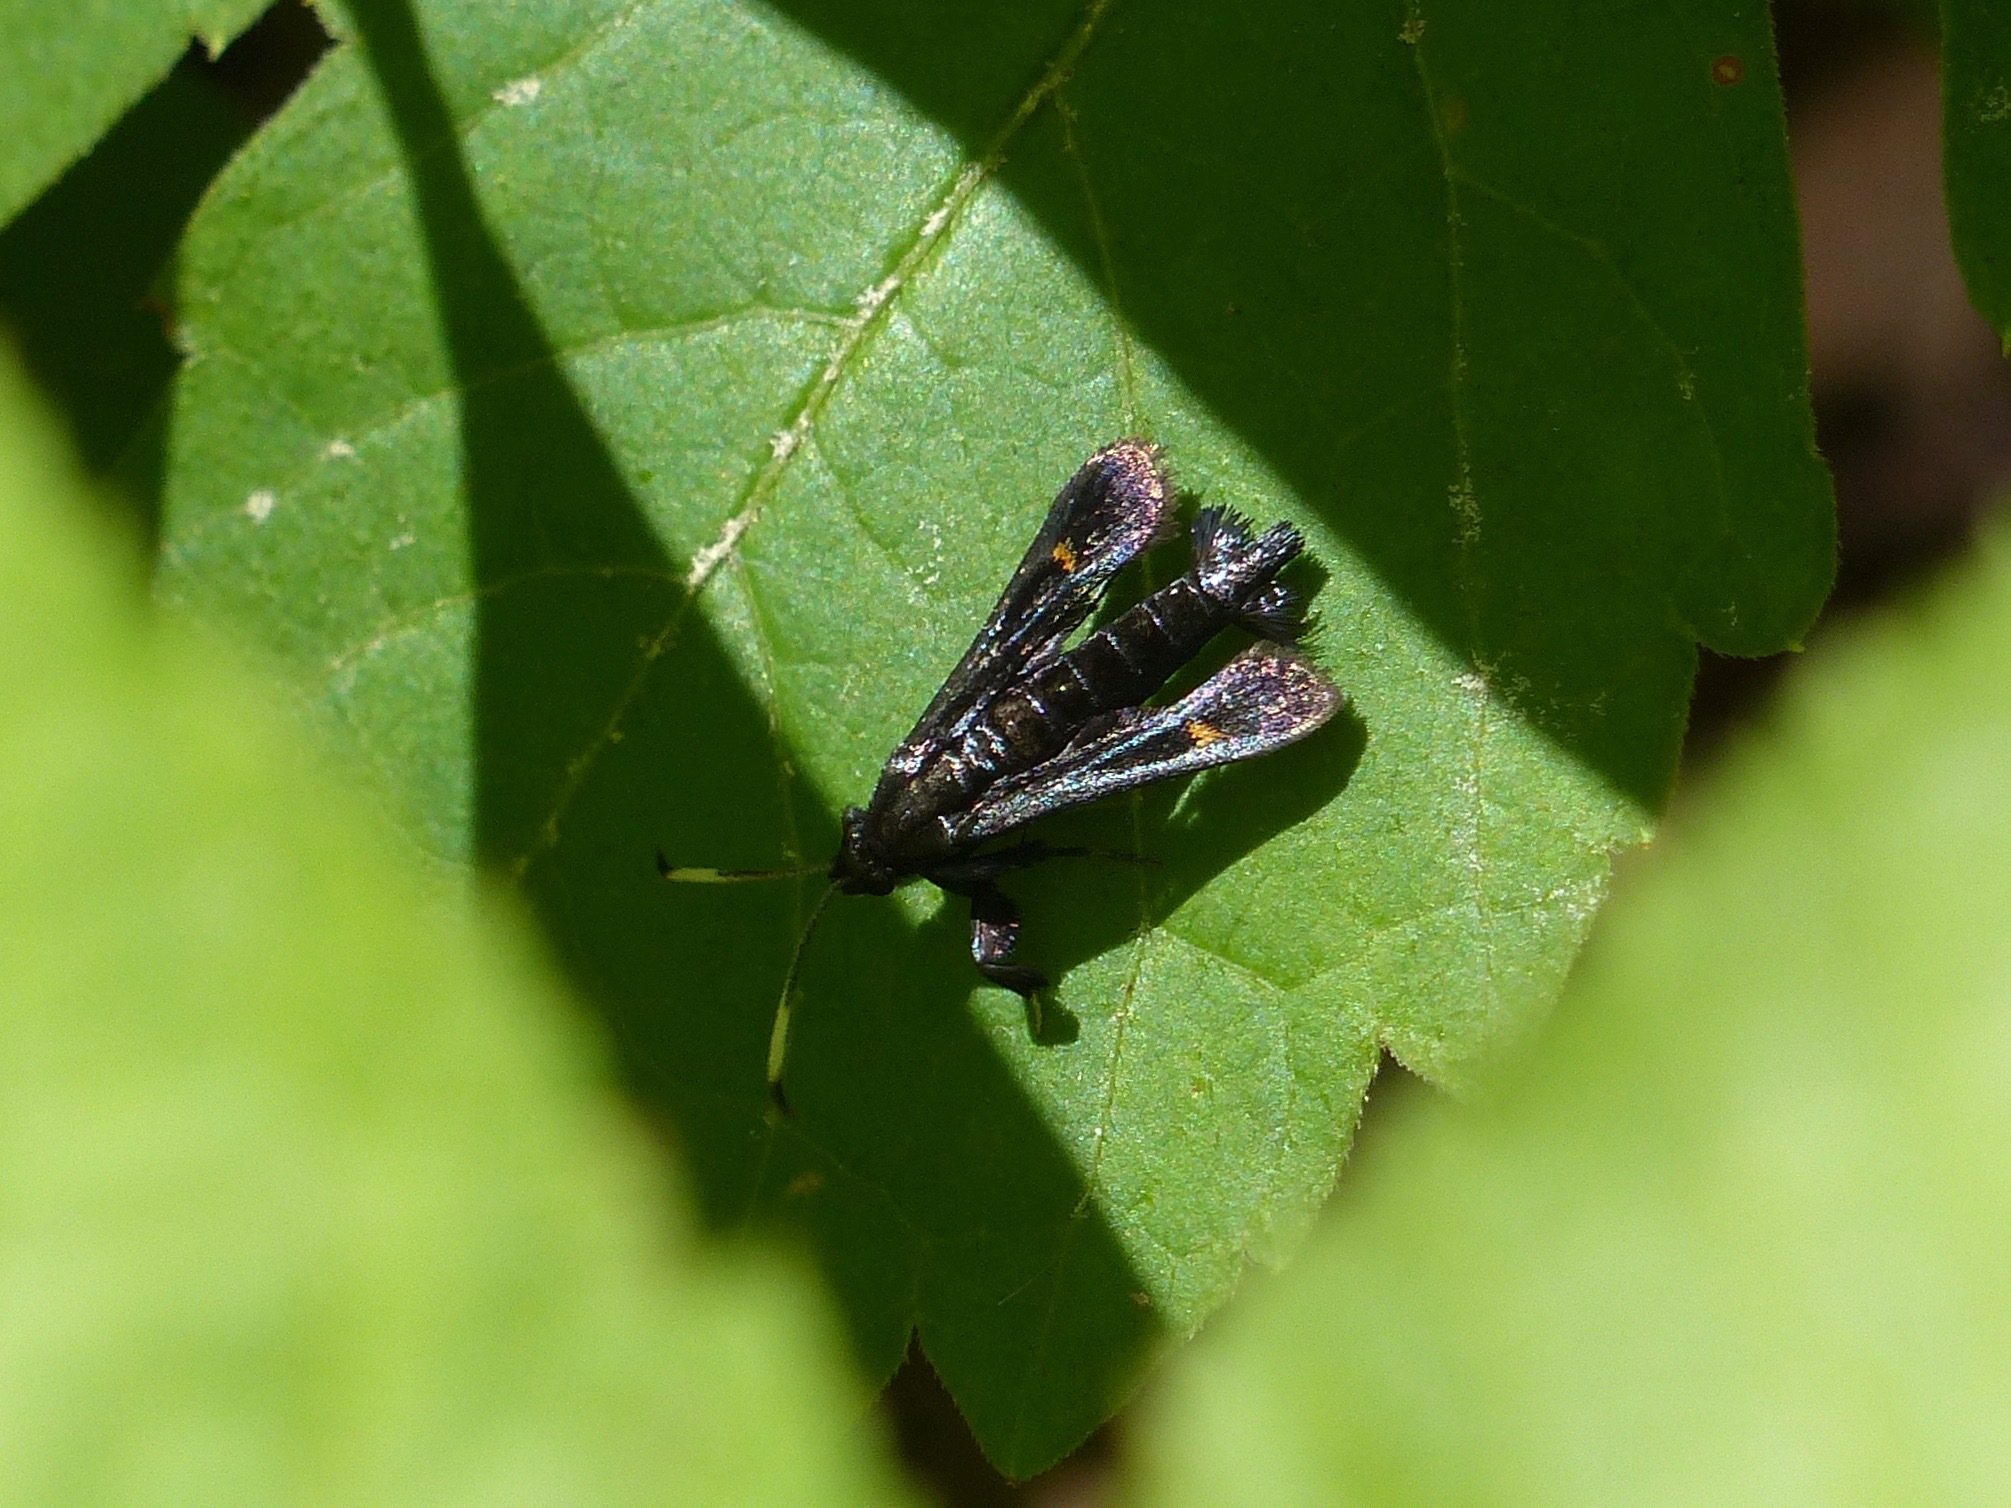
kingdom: Animalia
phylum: Arthropoda
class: Insecta
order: Lepidoptera
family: Sesiidae
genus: Albuna
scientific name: Albuna fraxini
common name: Virginia creeper clearwing
